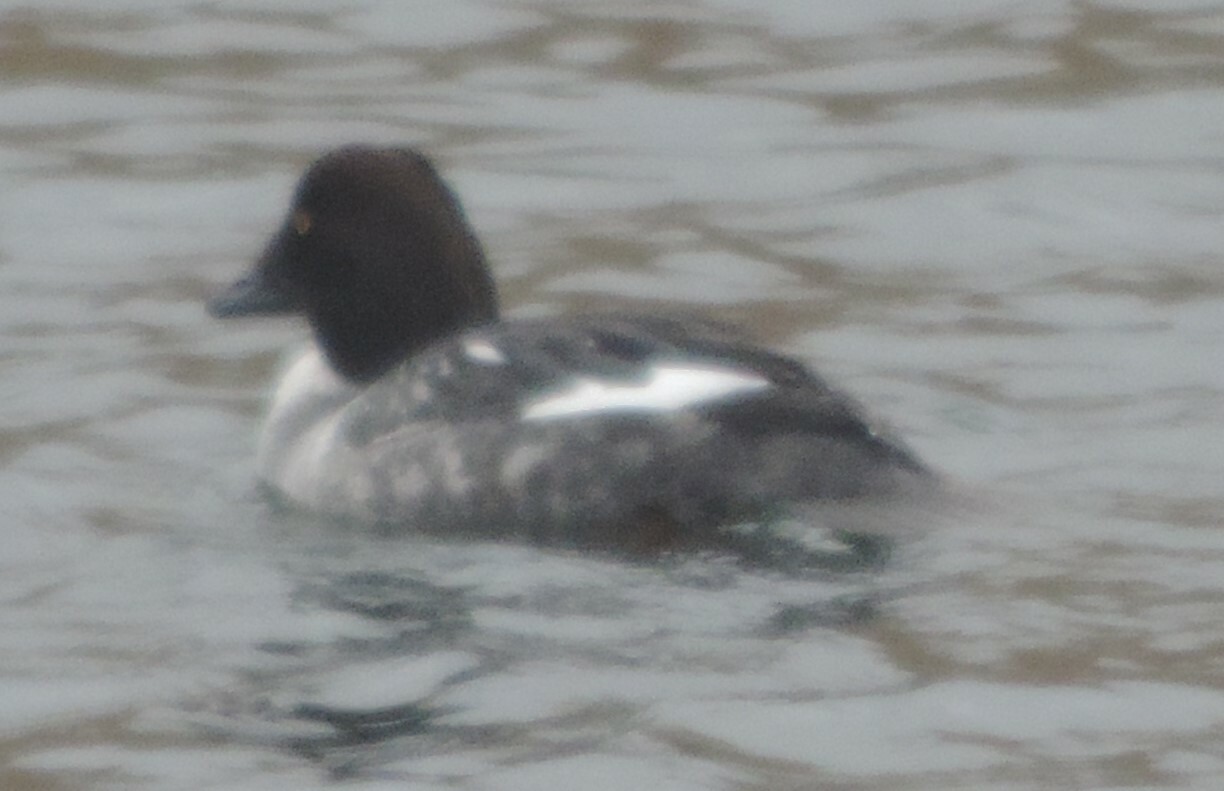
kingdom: Animalia
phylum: Chordata
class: Aves
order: Anseriformes
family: Anatidae
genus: Bucephala
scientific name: Bucephala clangula
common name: Common goldeneye
